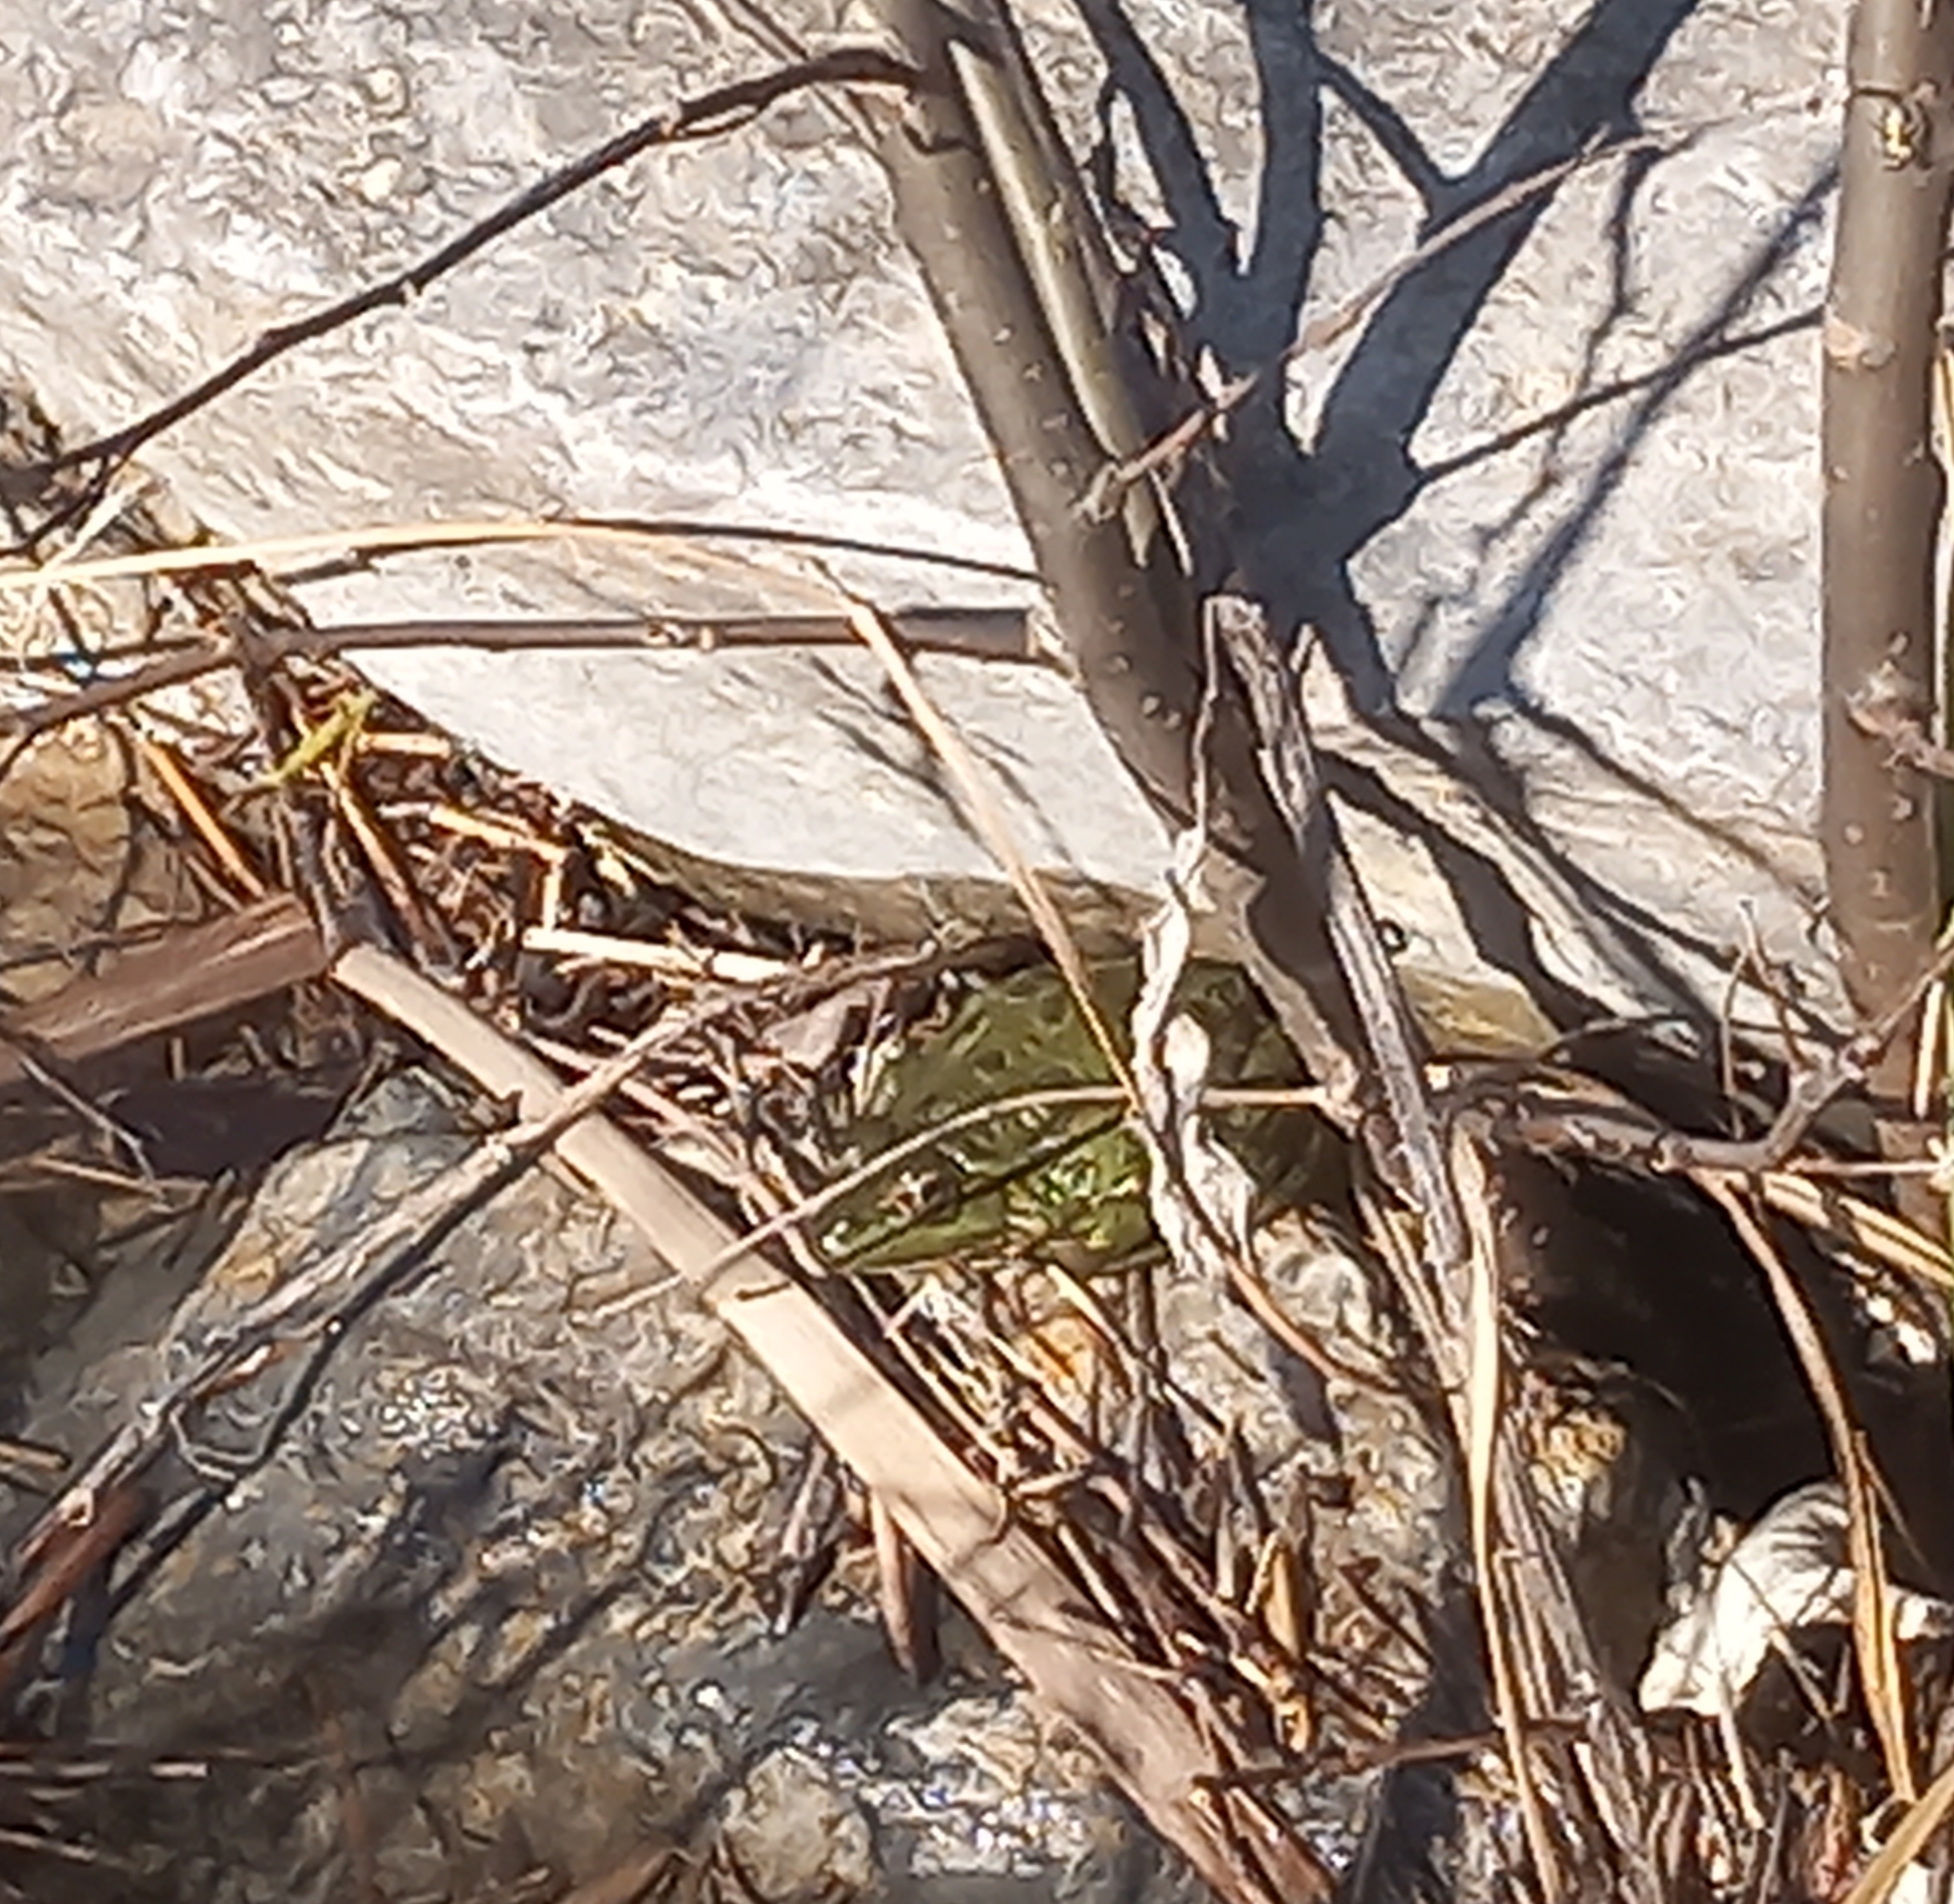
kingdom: Animalia
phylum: Chordata
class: Amphibia
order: Anura
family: Ranidae
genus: Pelophylax
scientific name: Pelophylax
